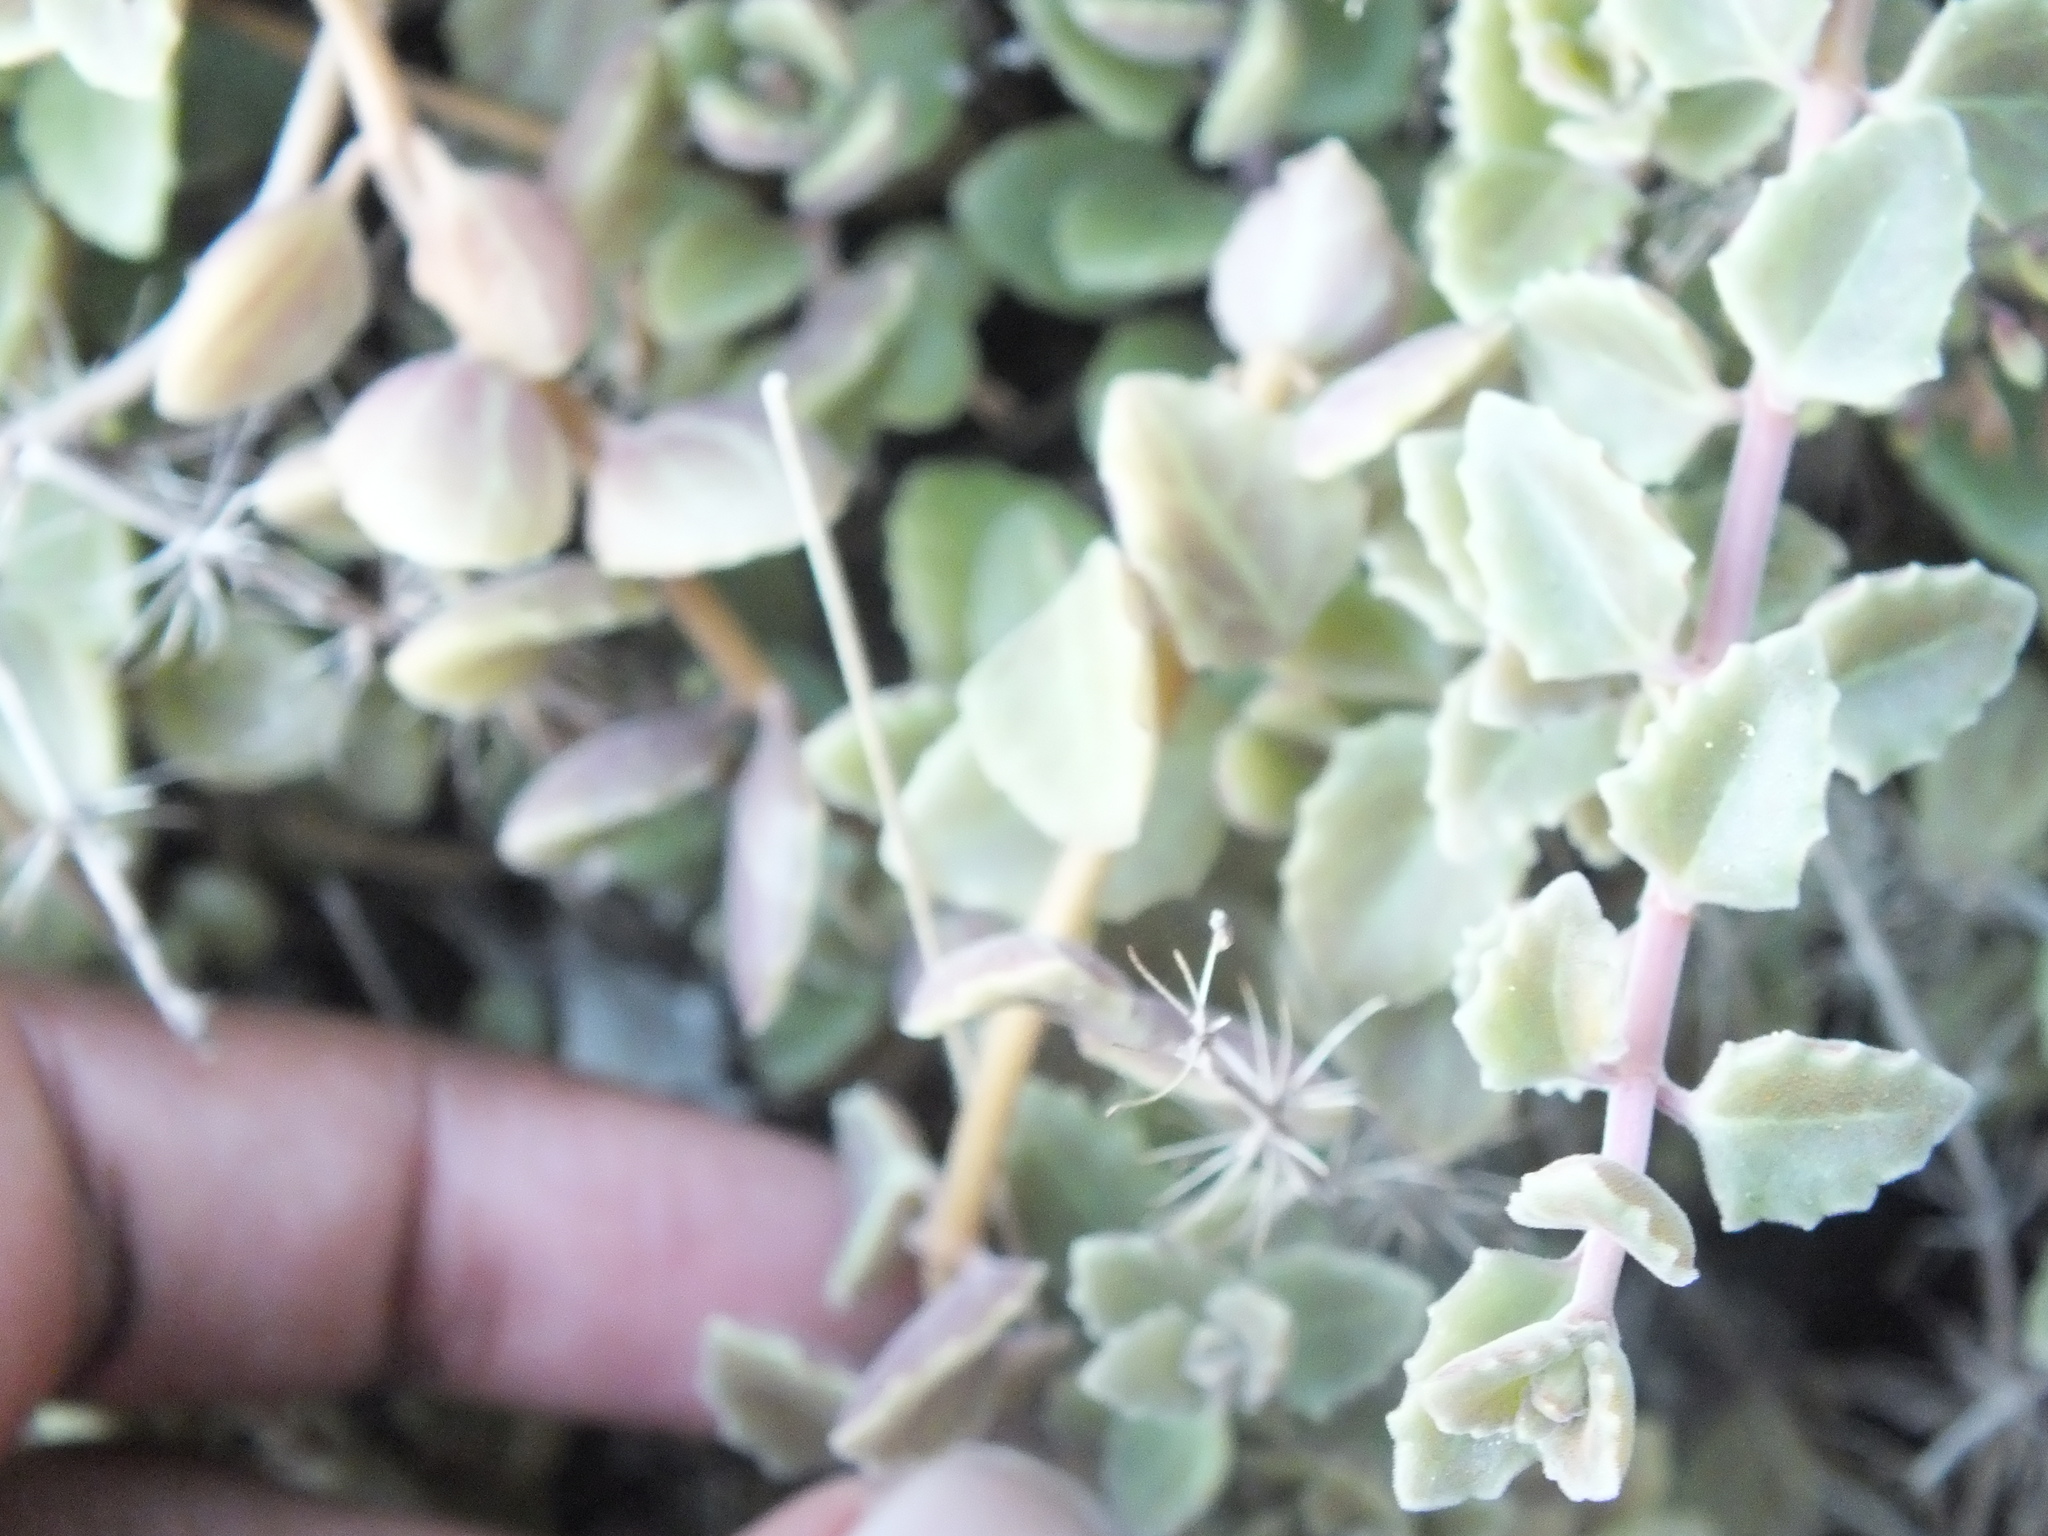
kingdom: Plantae
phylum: Tracheophyta
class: Magnoliopsida
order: Lamiales
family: Lamiaceae
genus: Coleus
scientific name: Coleus prostratus
